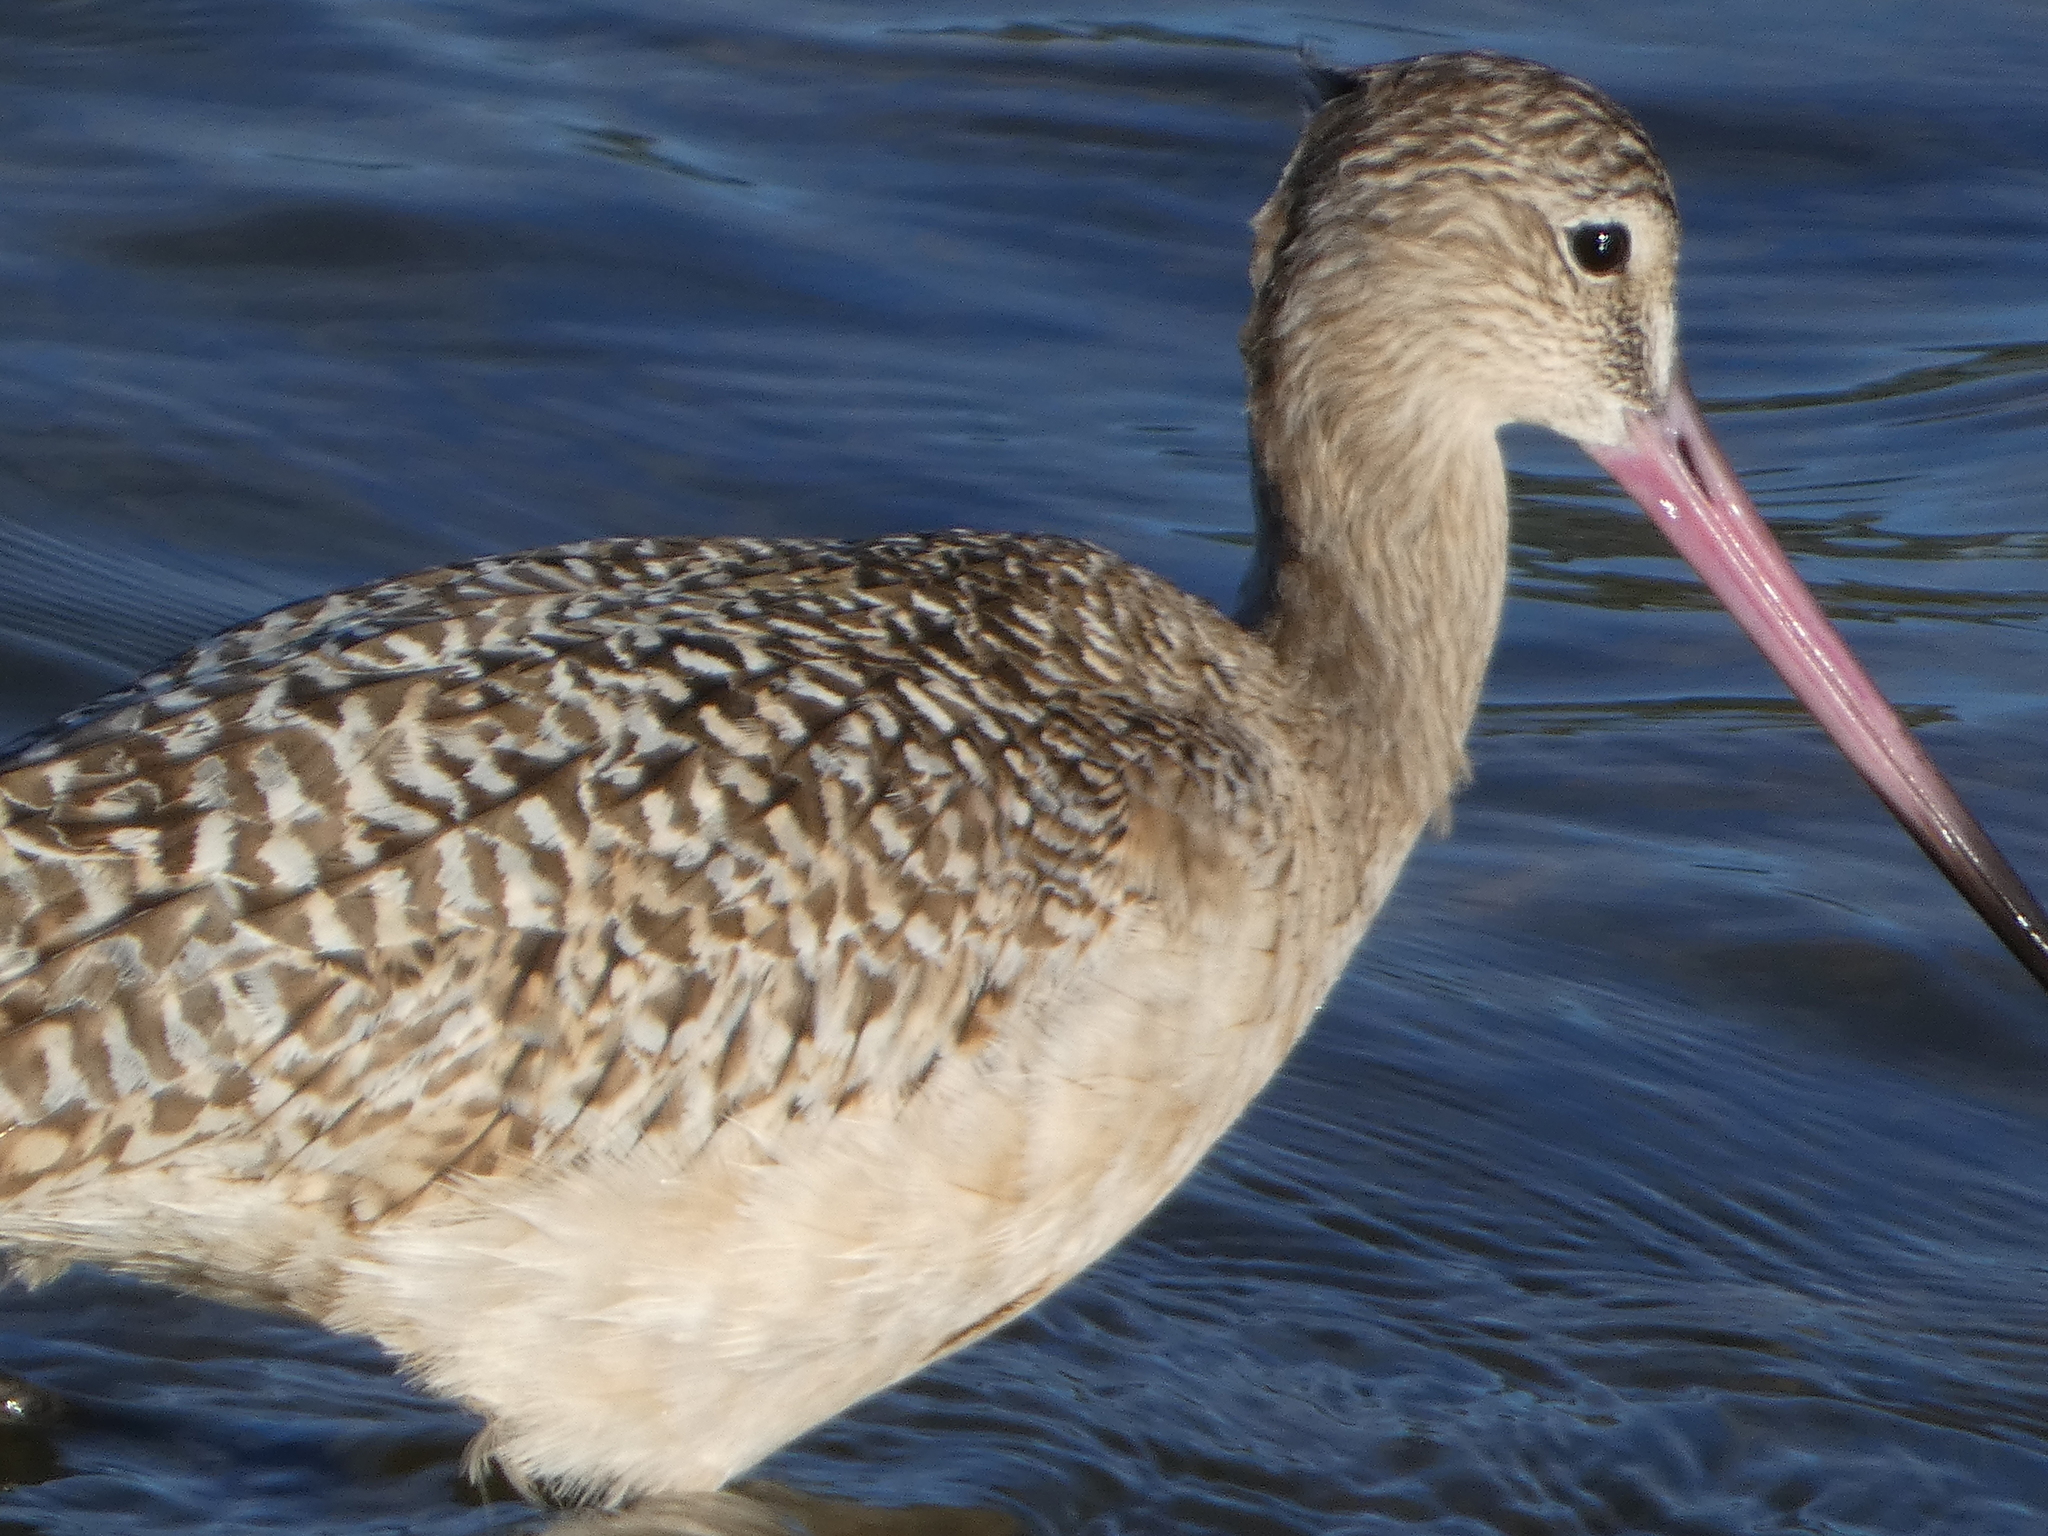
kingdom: Animalia
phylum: Chordata
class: Aves
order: Charadriiformes
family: Scolopacidae
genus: Limosa
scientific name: Limosa fedoa
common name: Marbled godwit
